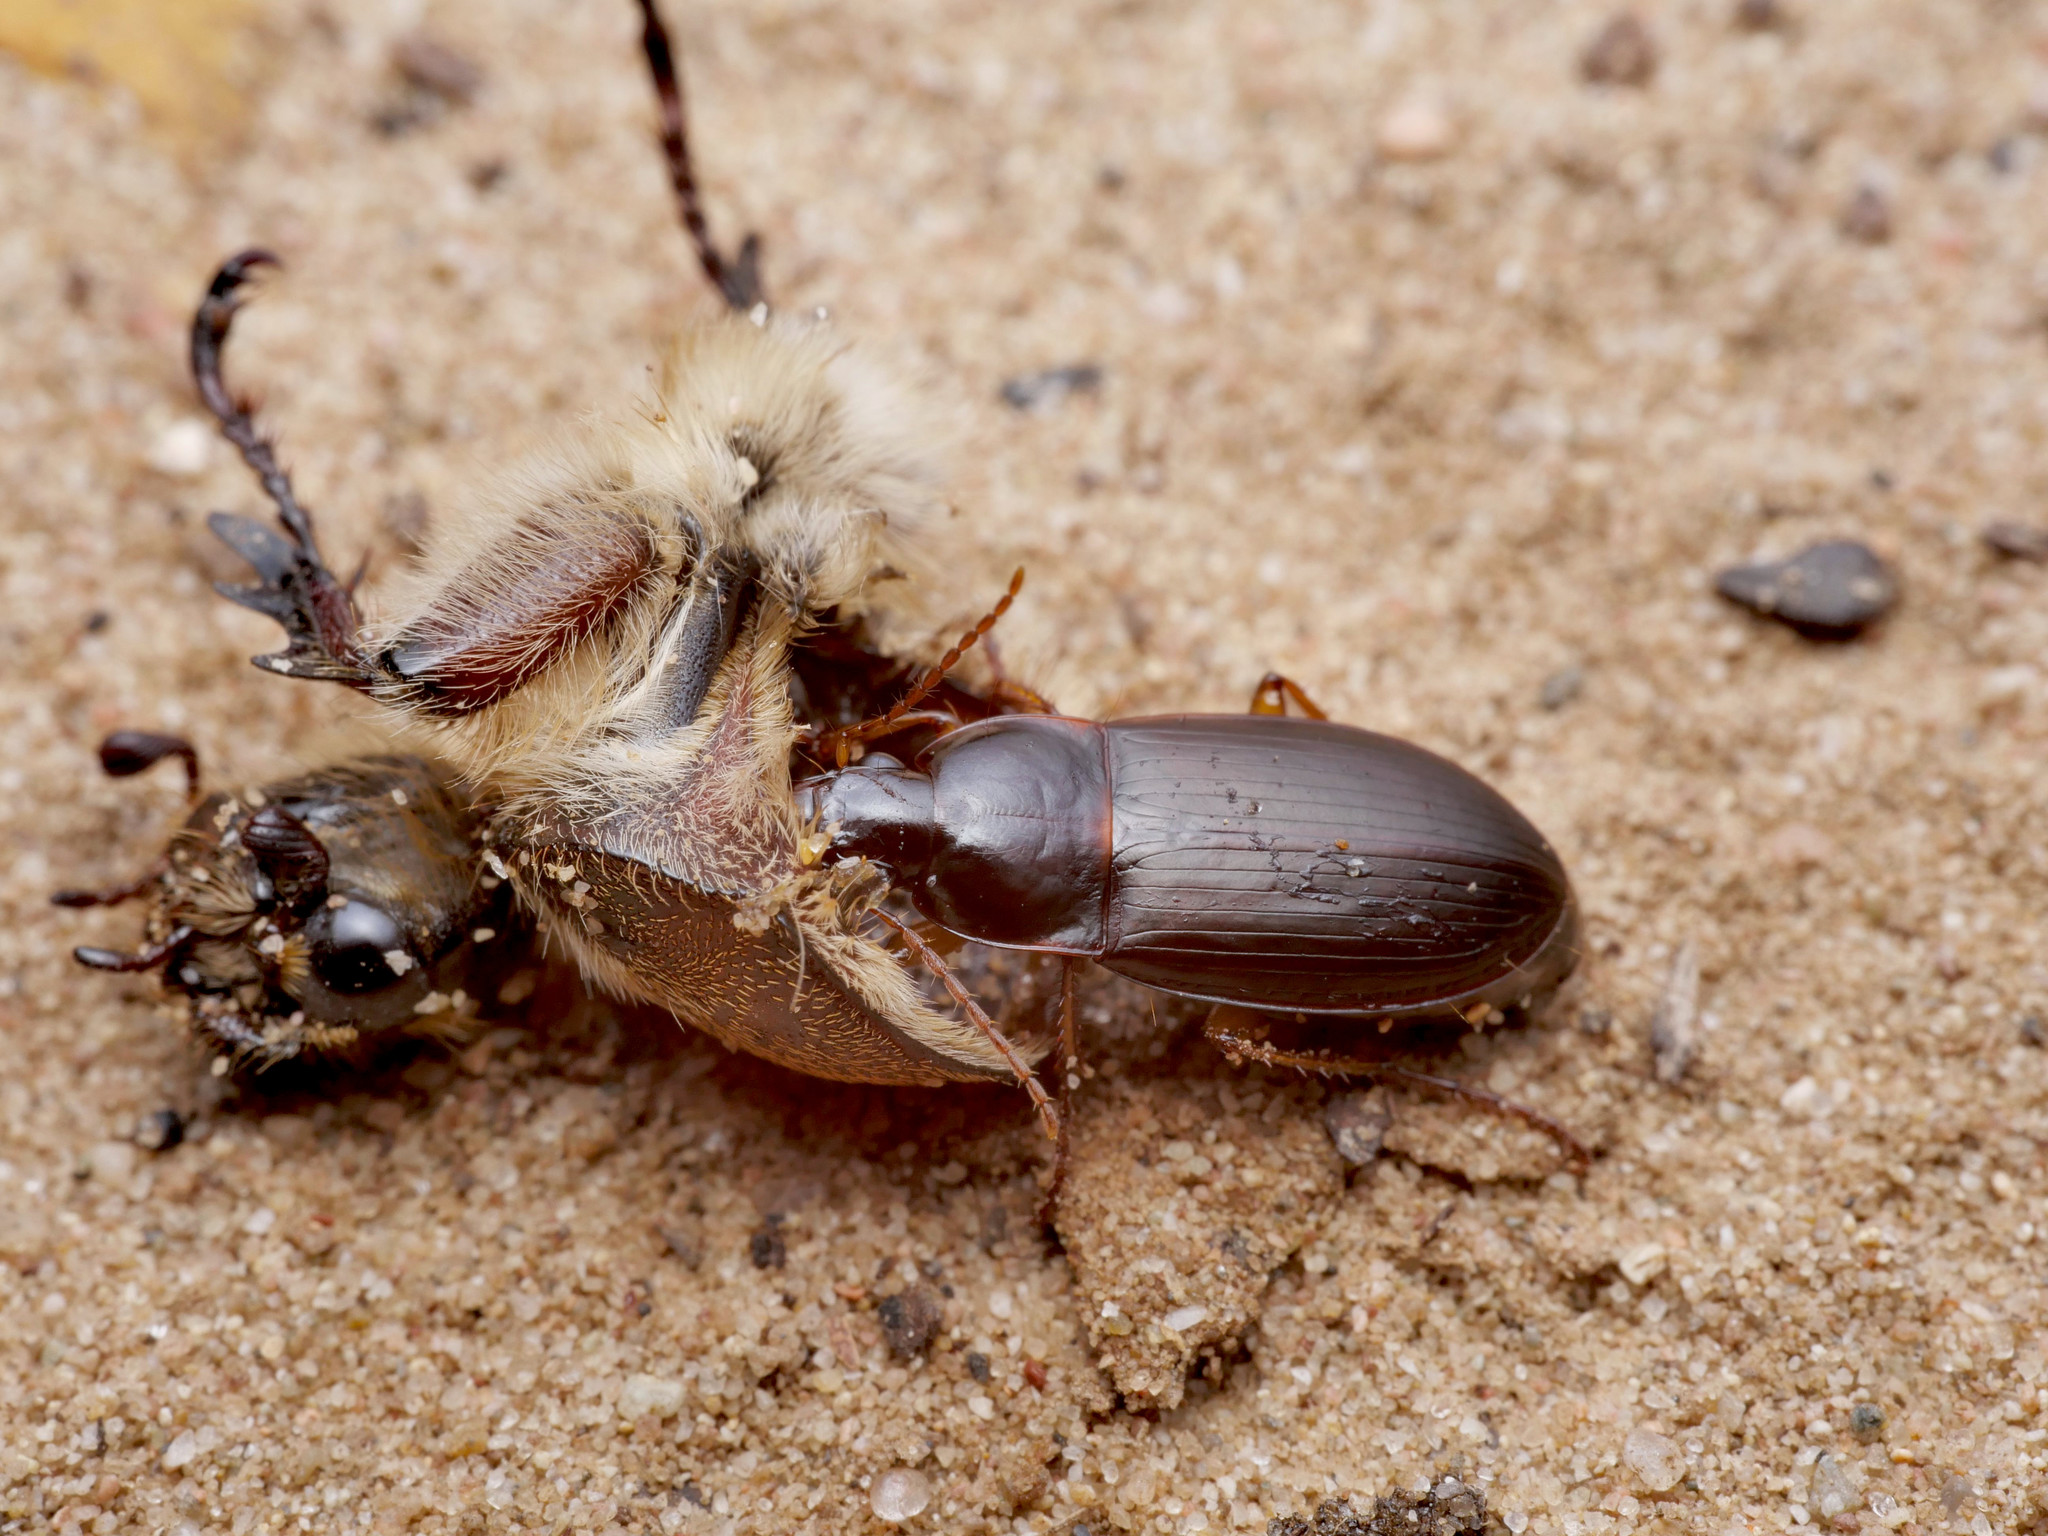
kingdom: Animalia
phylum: Arthropoda
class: Insecta
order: Coleoptera
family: Carabidae
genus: Calathus
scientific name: Calathus ambiguus
